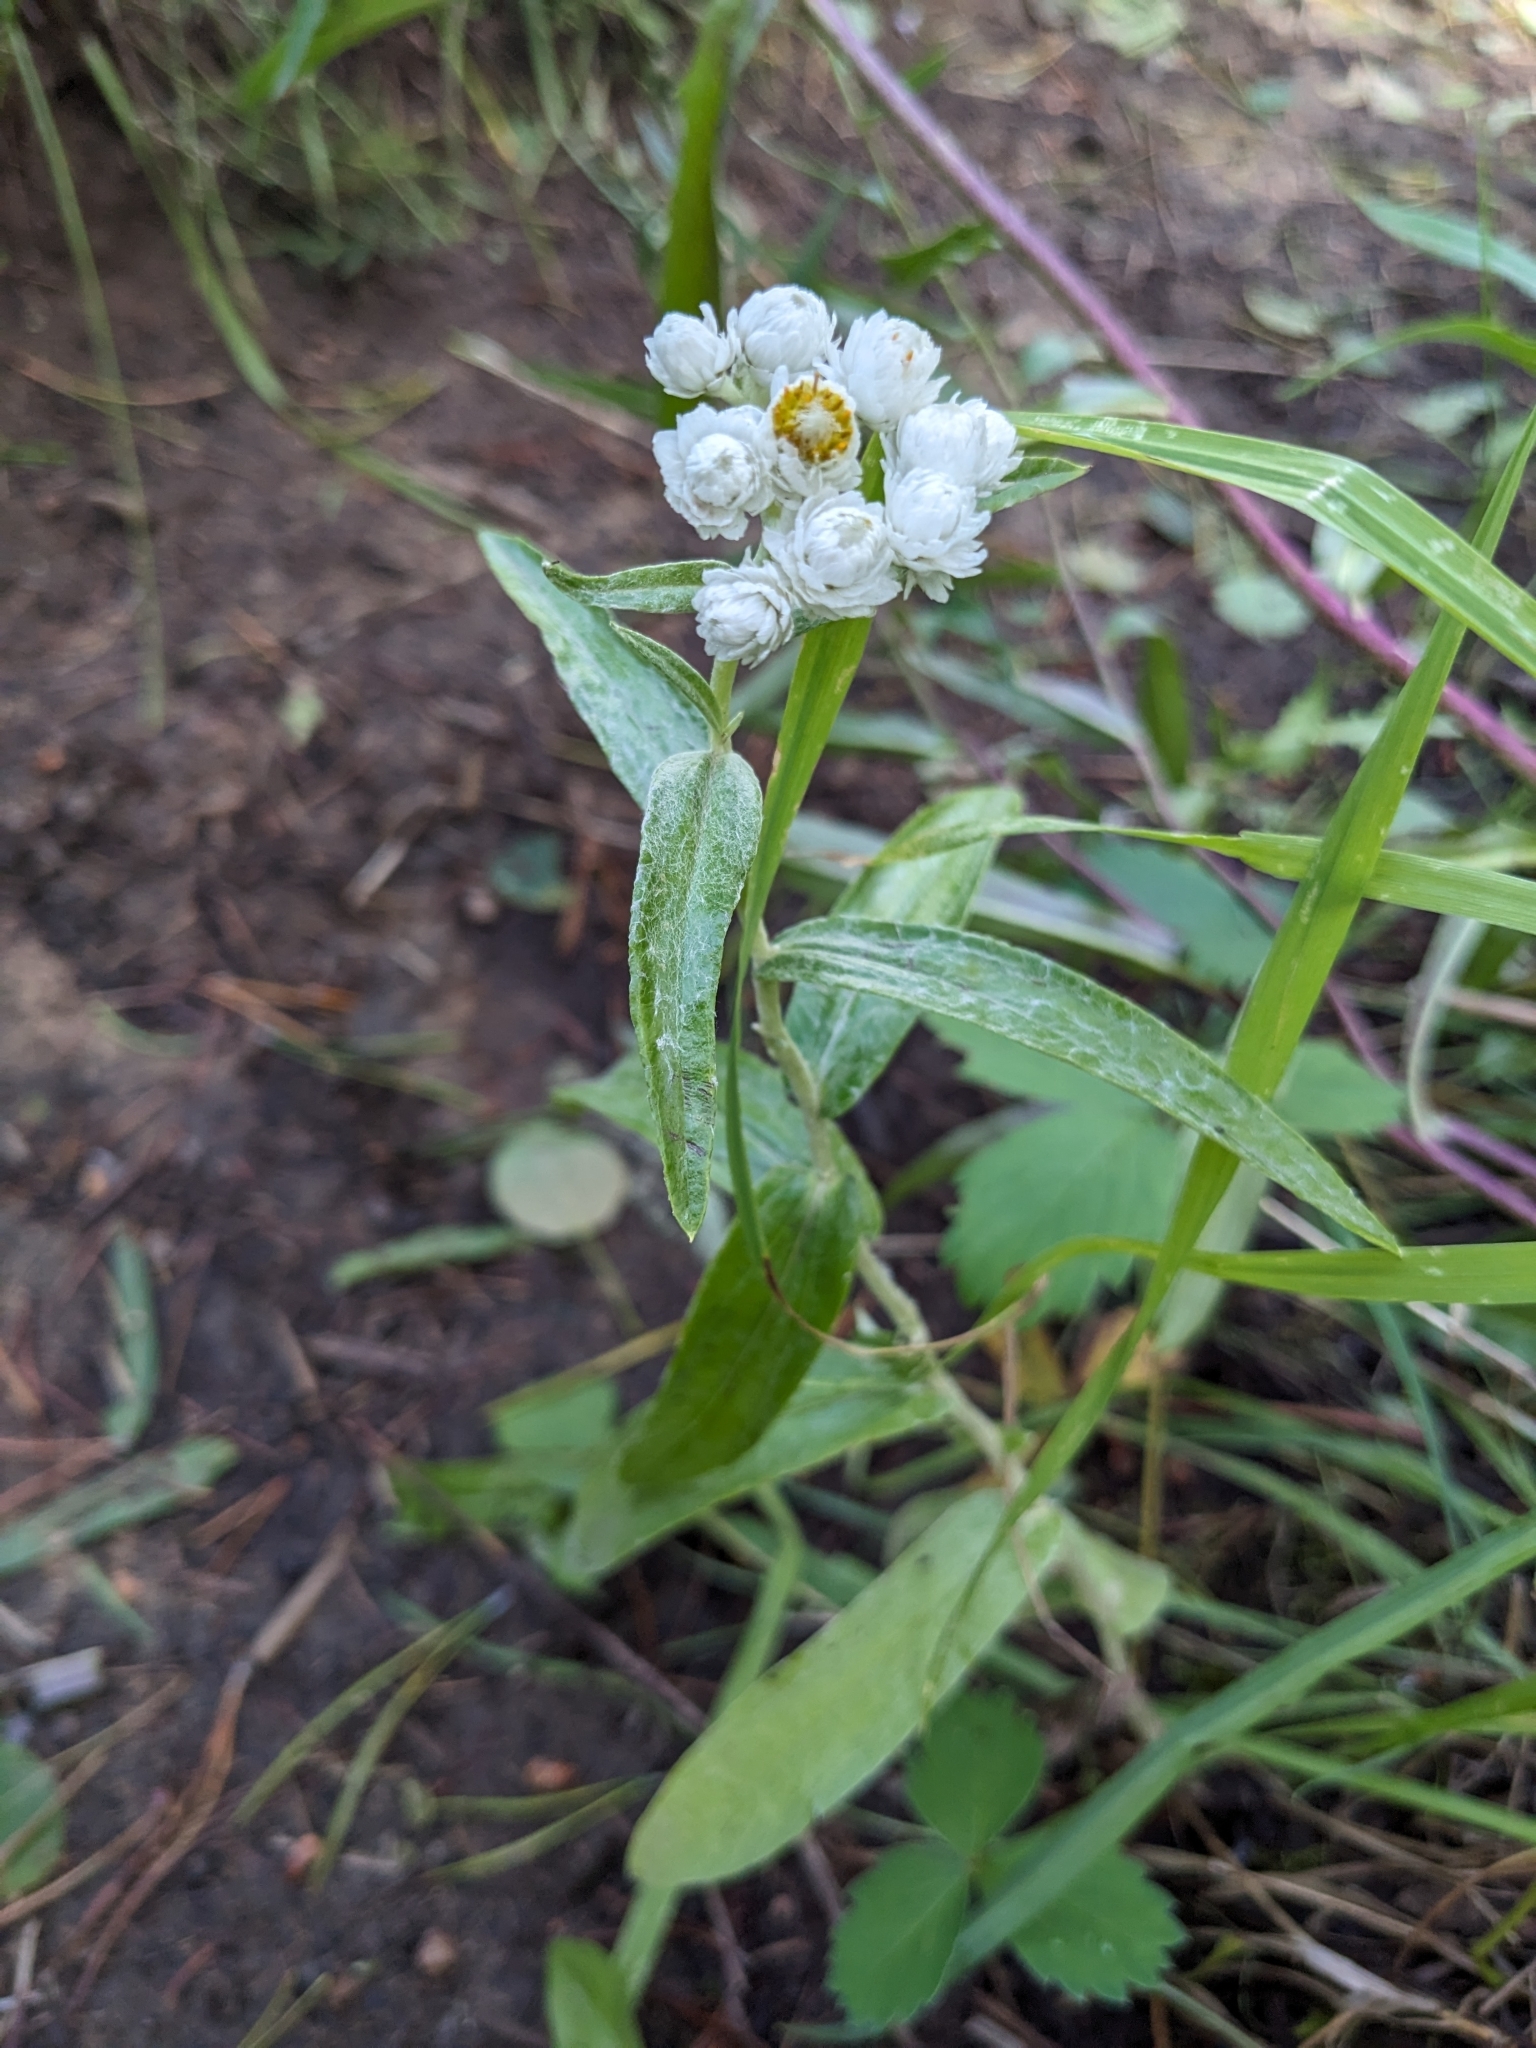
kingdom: Plantae
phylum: Tracheophyta
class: Magnoliopsida
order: Asterales
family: Asteraceae
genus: Anaphalis
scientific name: Anaphalis margaritacea
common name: Pearly everlasting
